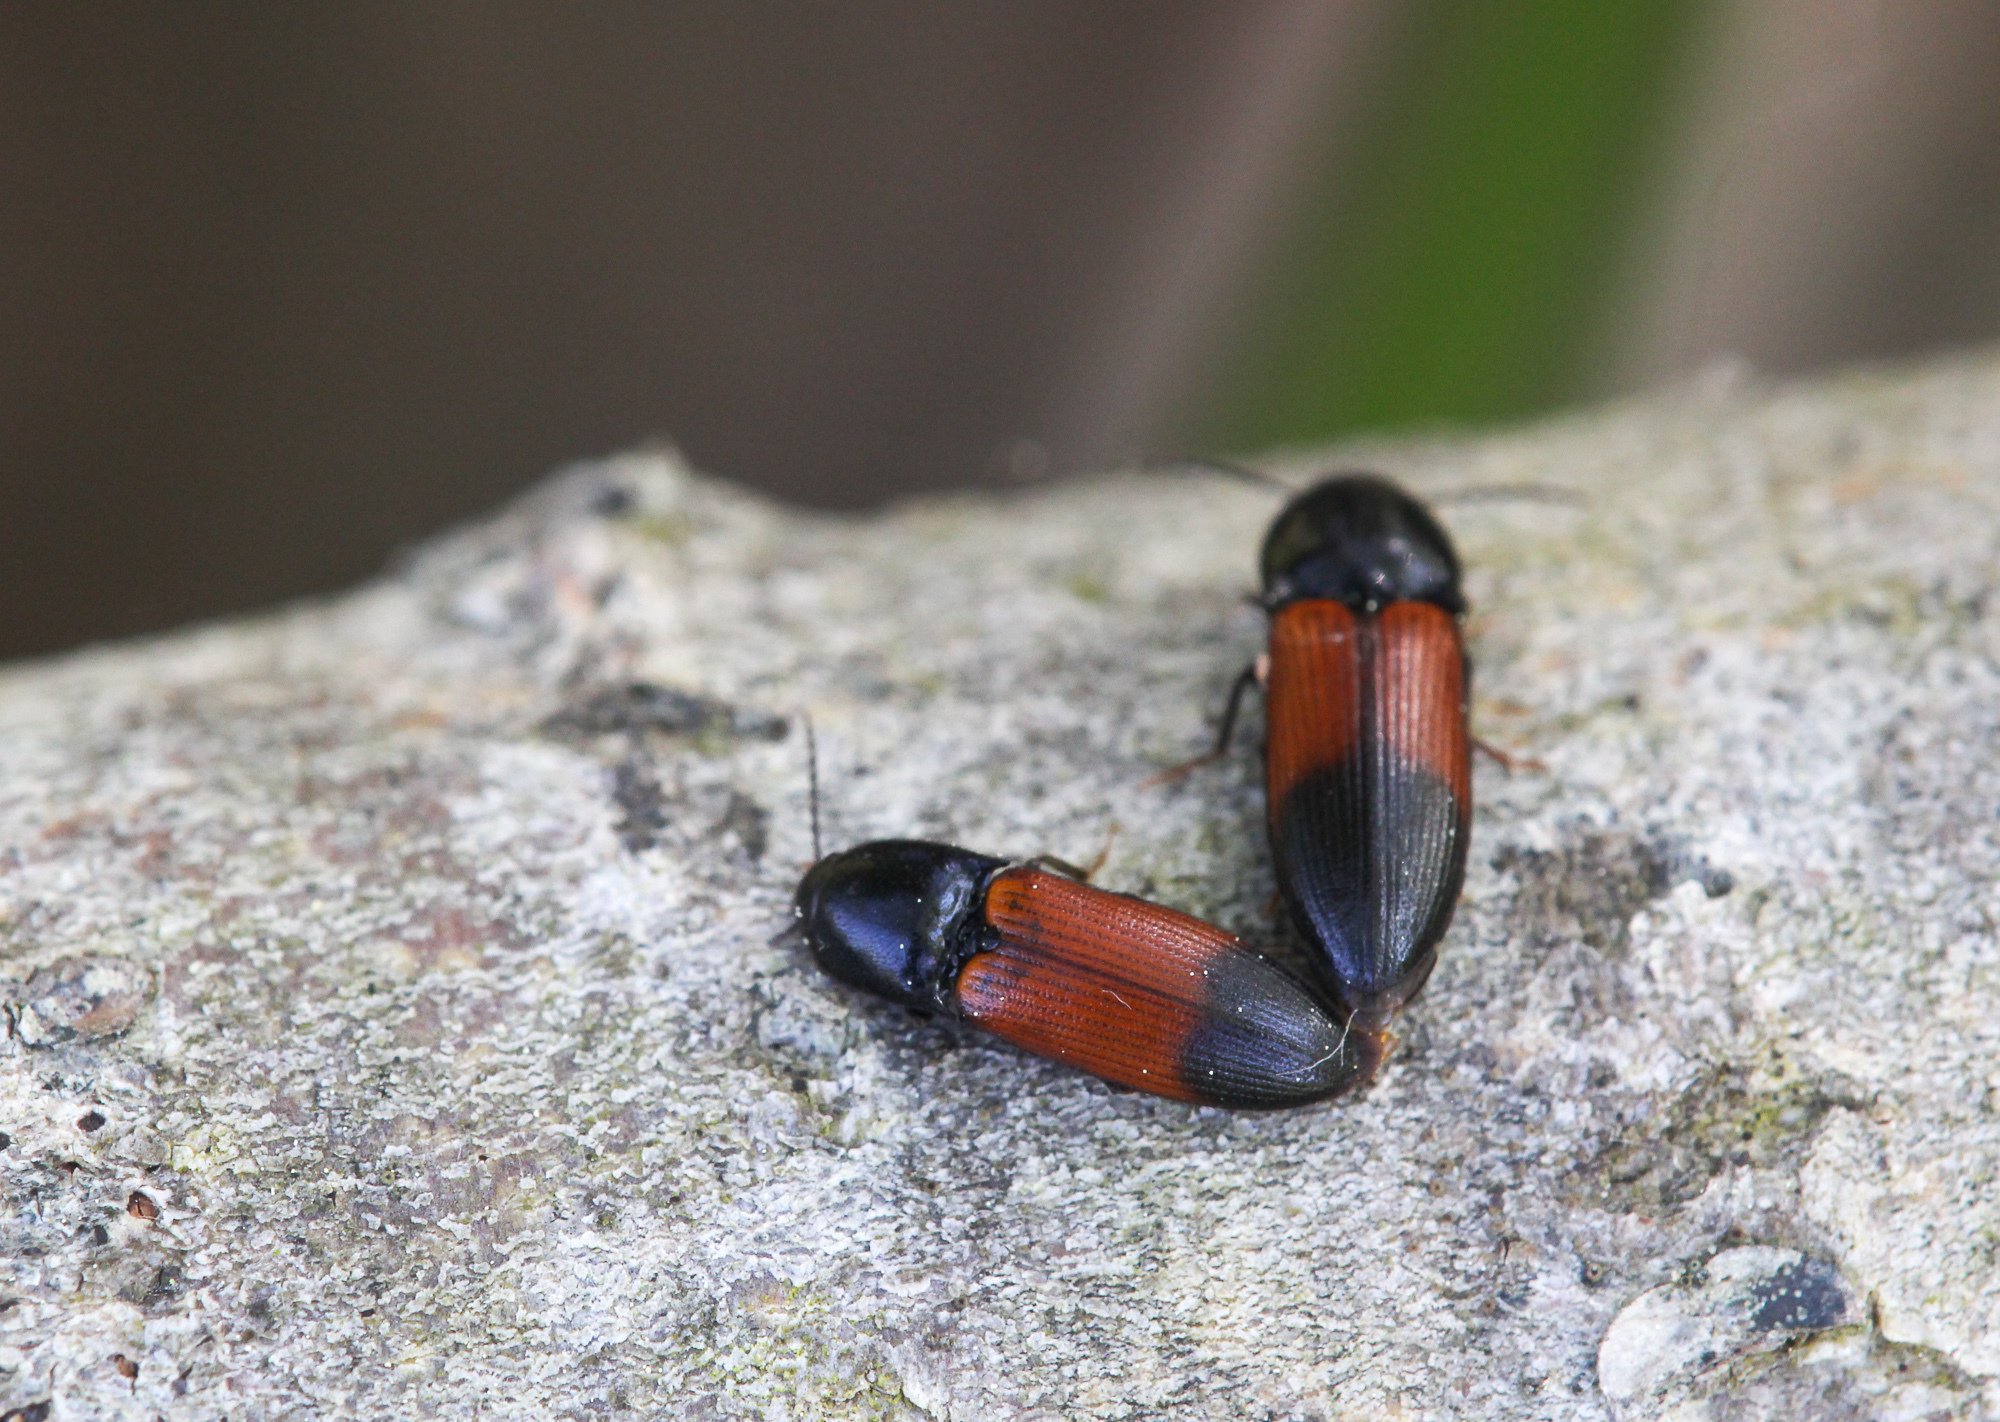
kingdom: Animalia
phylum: Arthropoda
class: Insecta
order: Coleoptera
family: Elateridae
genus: Ampedus
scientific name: Ampedus balteatus
